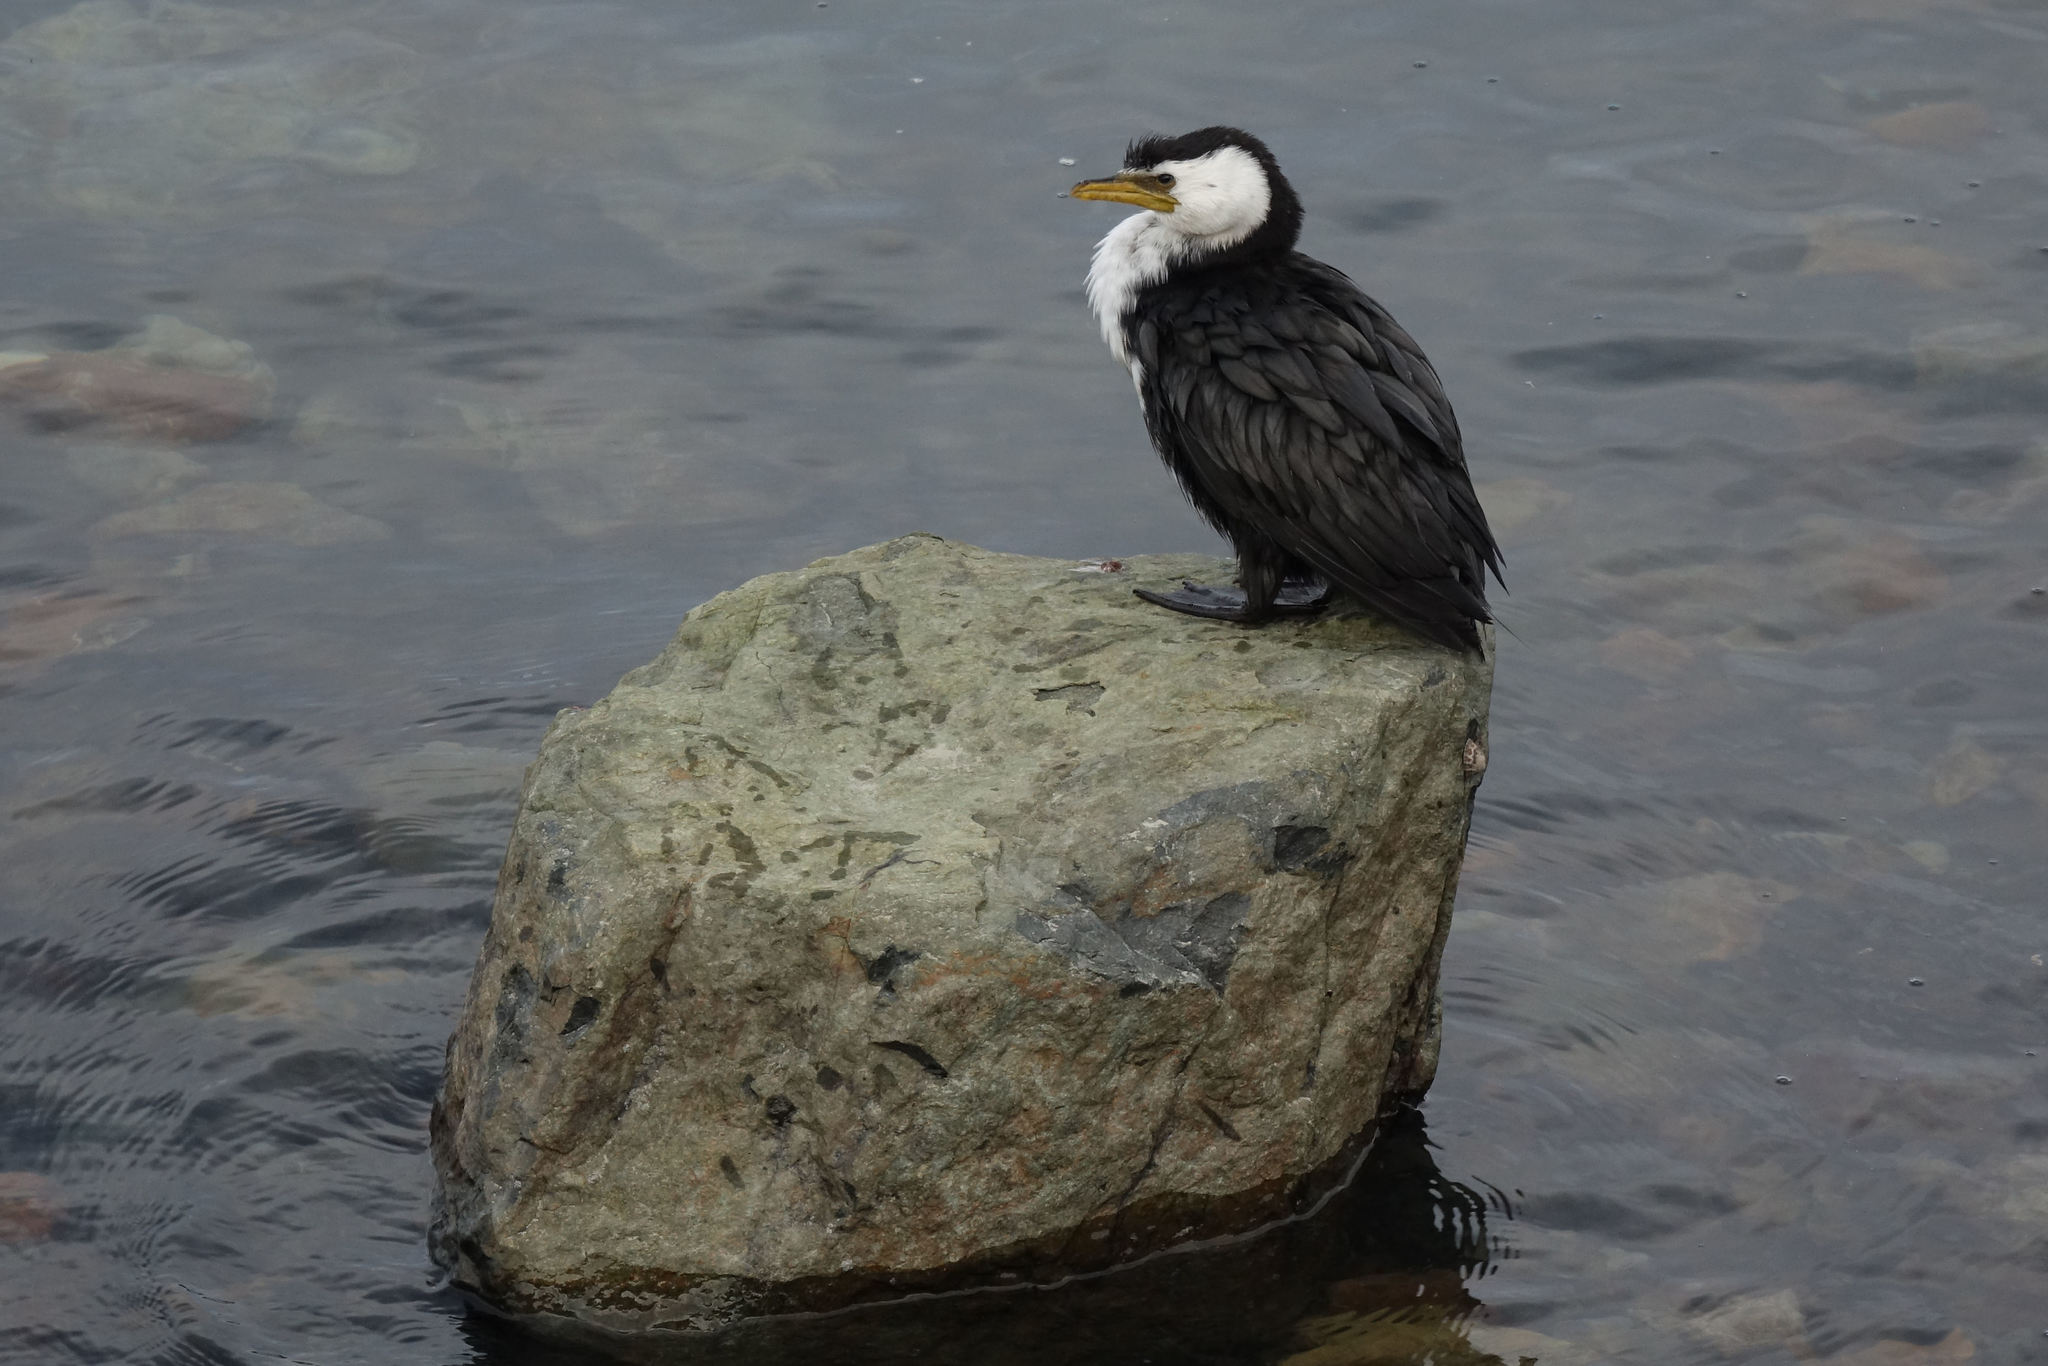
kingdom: Animalia
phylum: Chordata
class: Aves
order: Suliformes
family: Phalacrocoracidae
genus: Microcarbo
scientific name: Microcarbo melanoleucos
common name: Little pied cormorant
